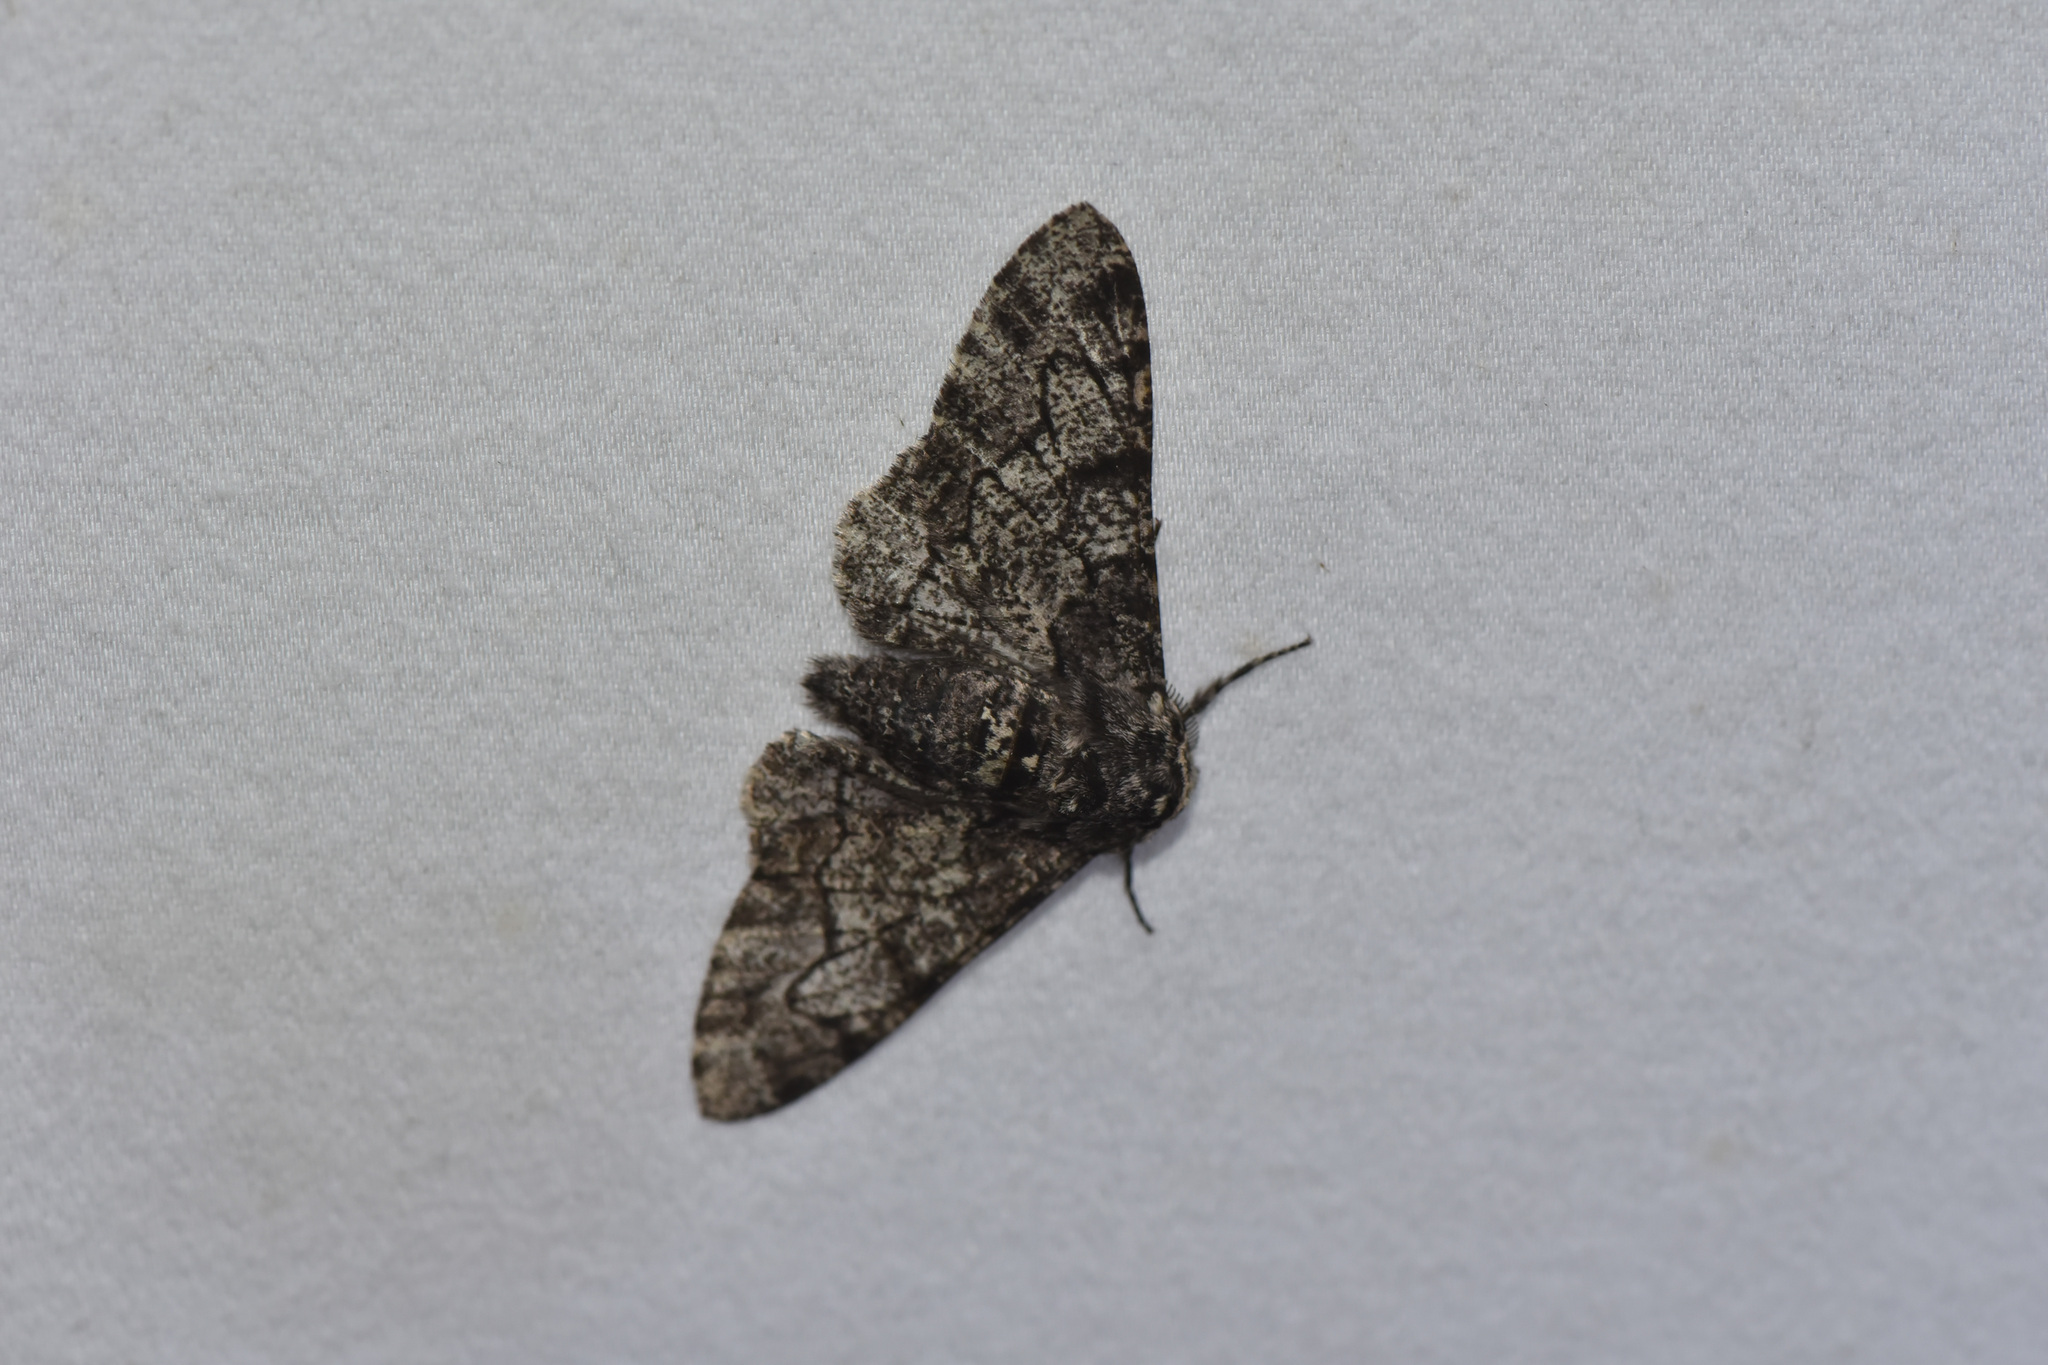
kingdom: Animalia
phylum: Arthropoda
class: Insecta
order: Lepidoptera
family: Geometridae
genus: Biston
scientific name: Biston betularia
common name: Peppered moth
